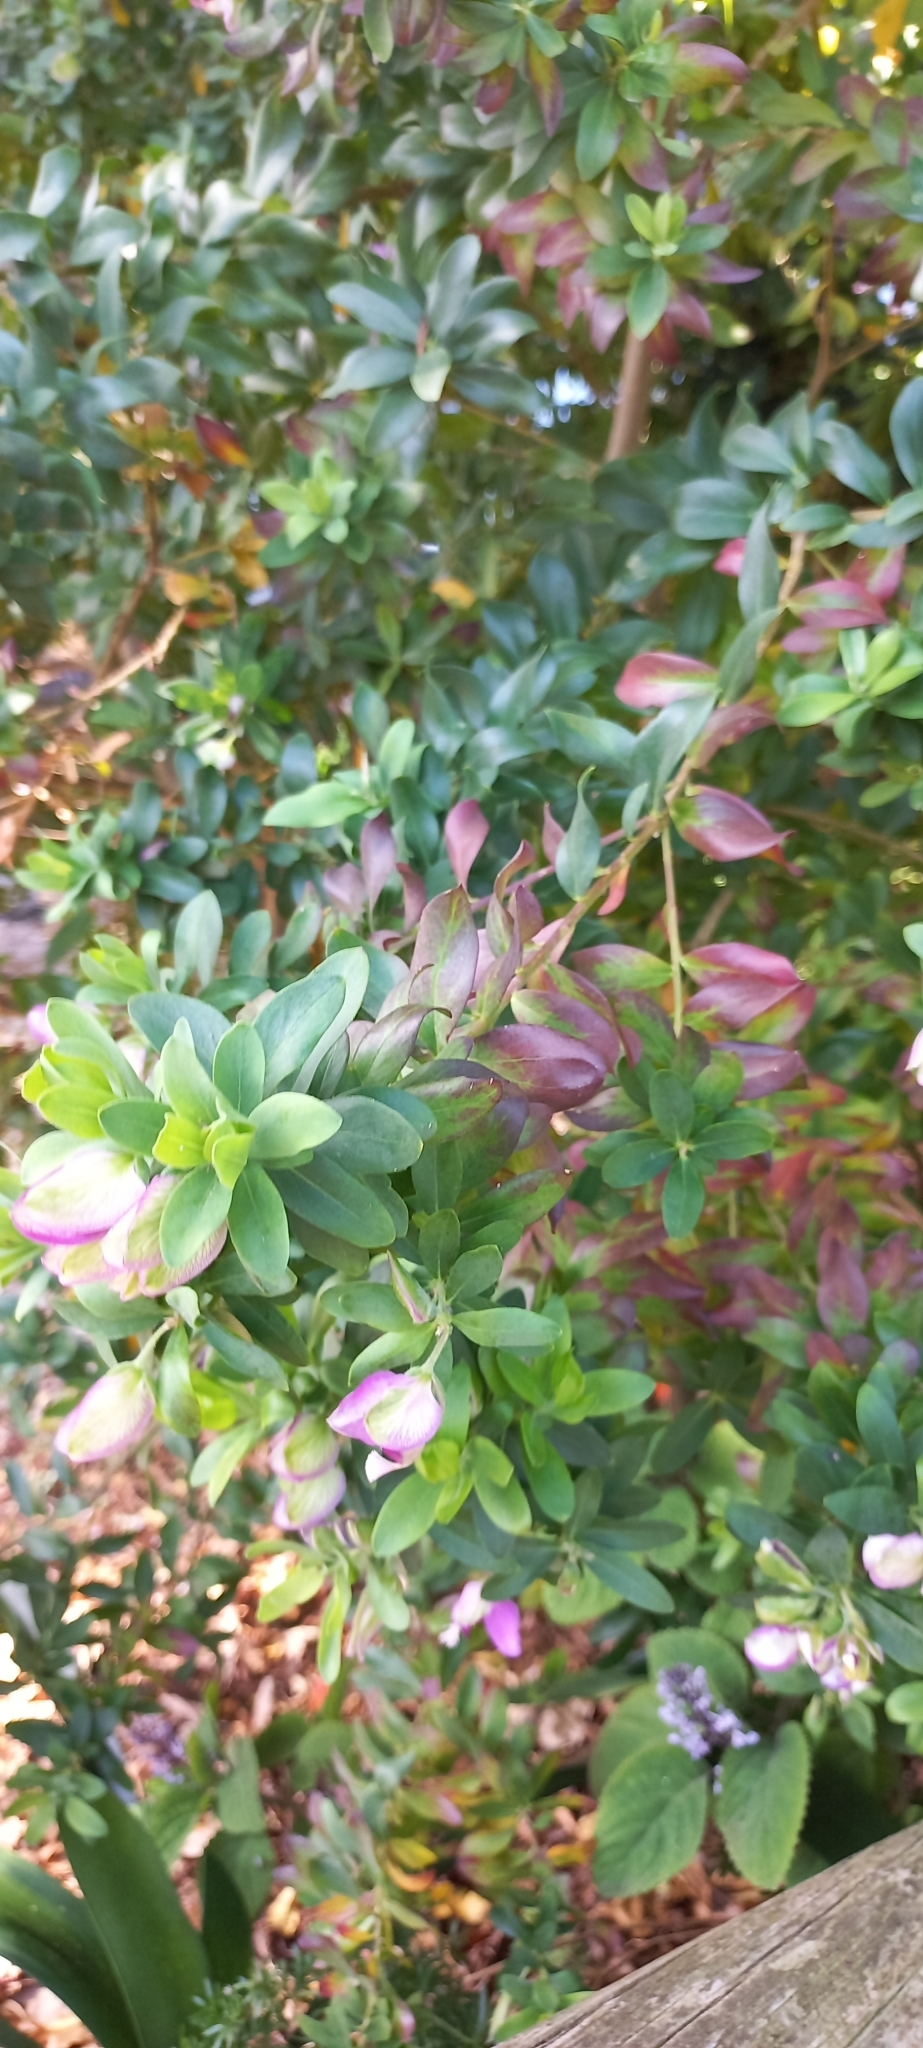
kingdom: Plantae
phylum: Tracheophyta
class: Magnoliopsida
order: Fabales
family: Polygalaceae
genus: Polygala
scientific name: Polygala myrtifolia
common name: Myrtle-leaf milkwort
